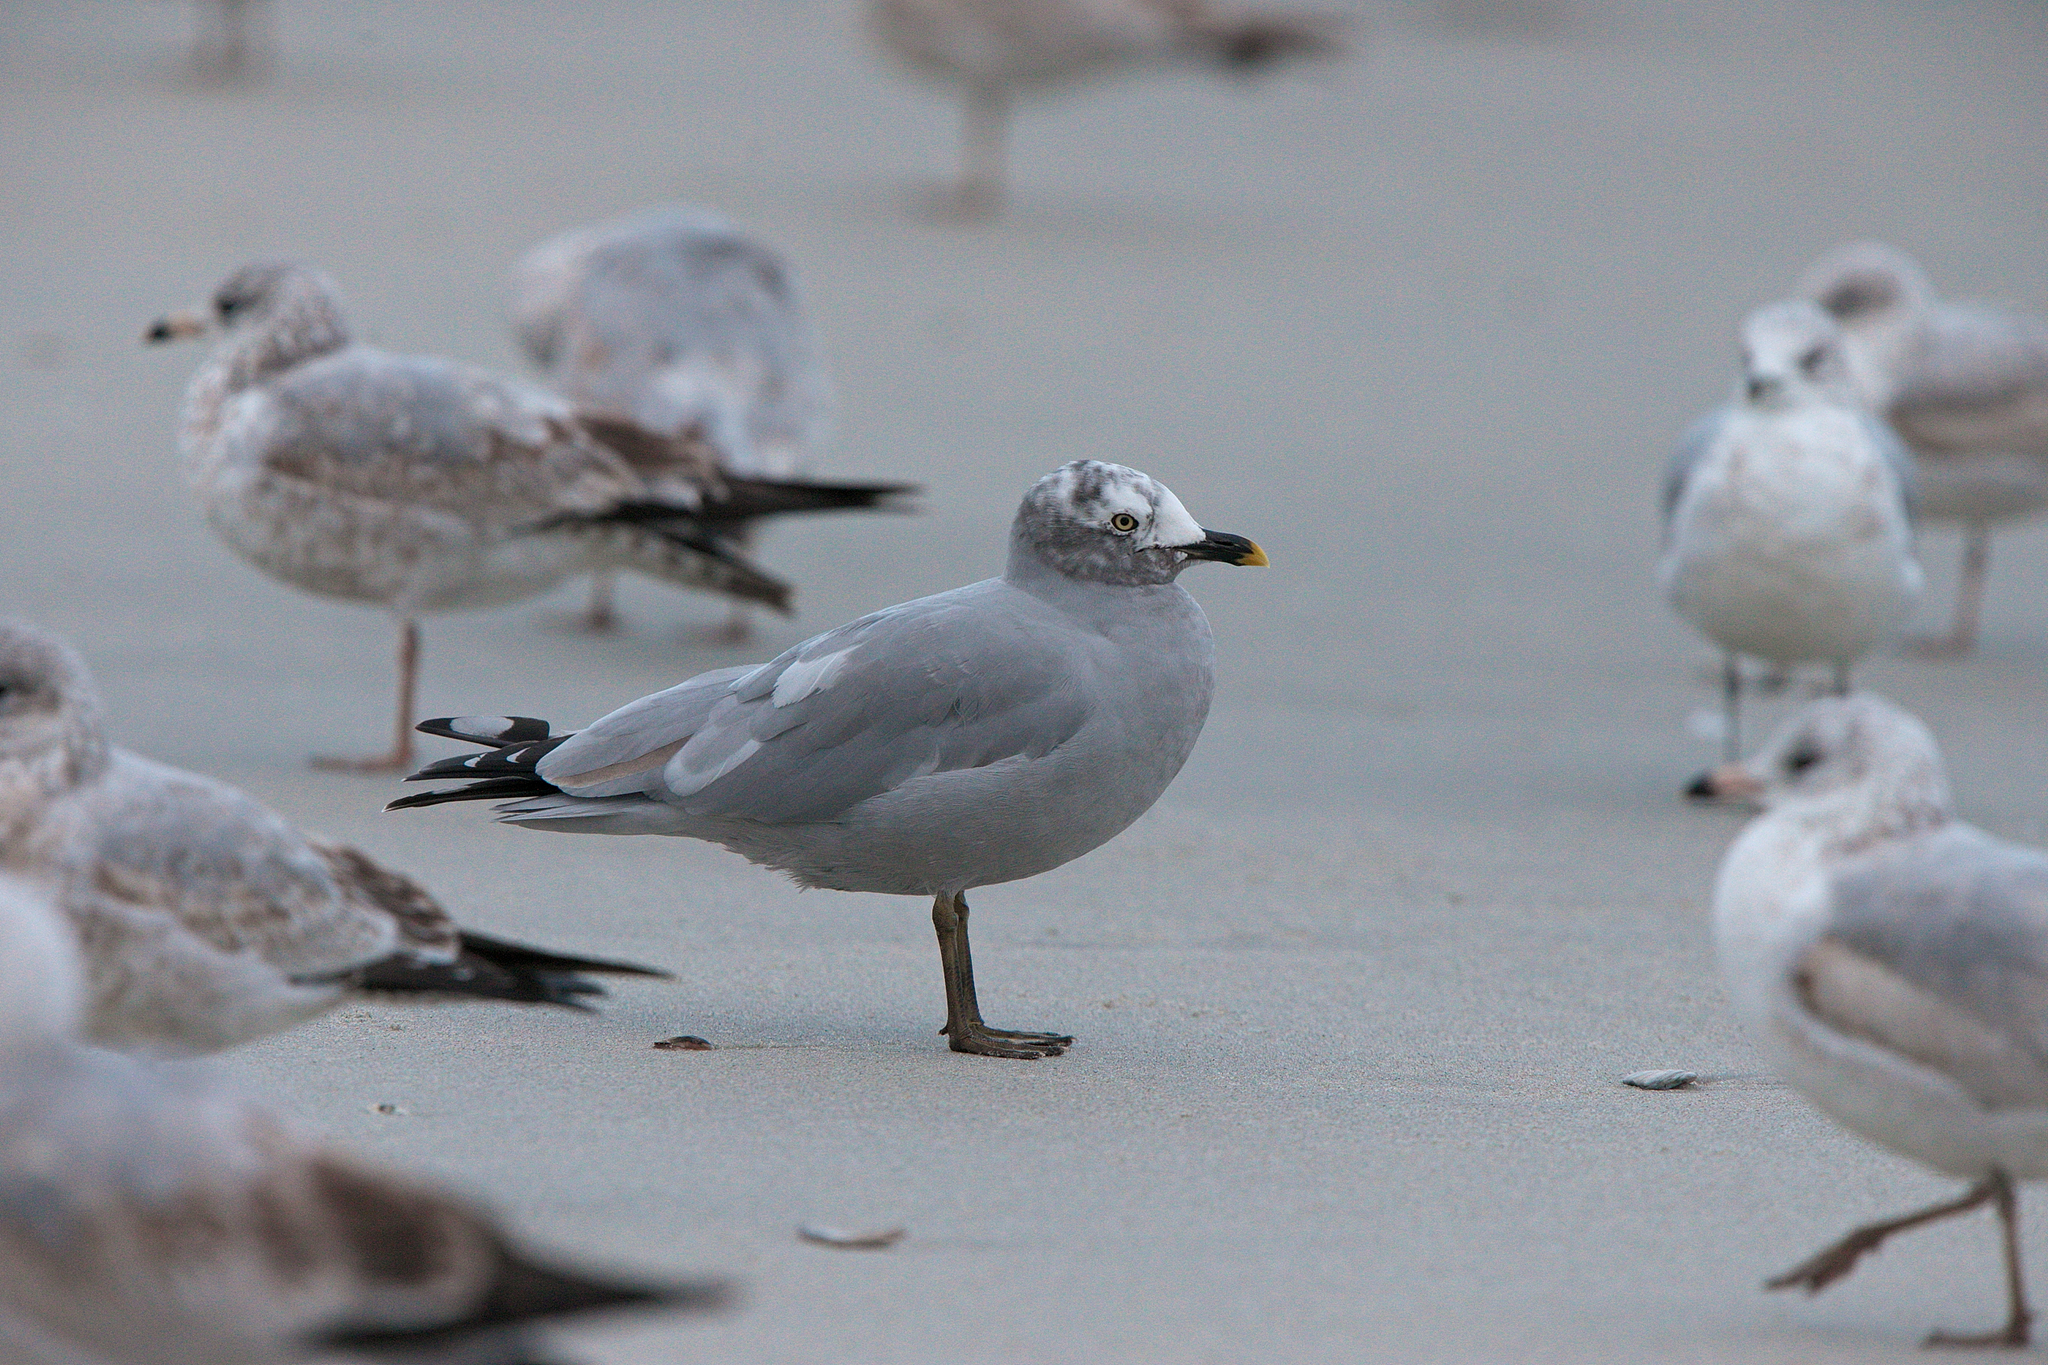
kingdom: Animalia
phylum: Chordata
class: Aves
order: Charadriiformes
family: Laridae
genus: Larus
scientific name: Larus delawarensis
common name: Ring-billed gull
